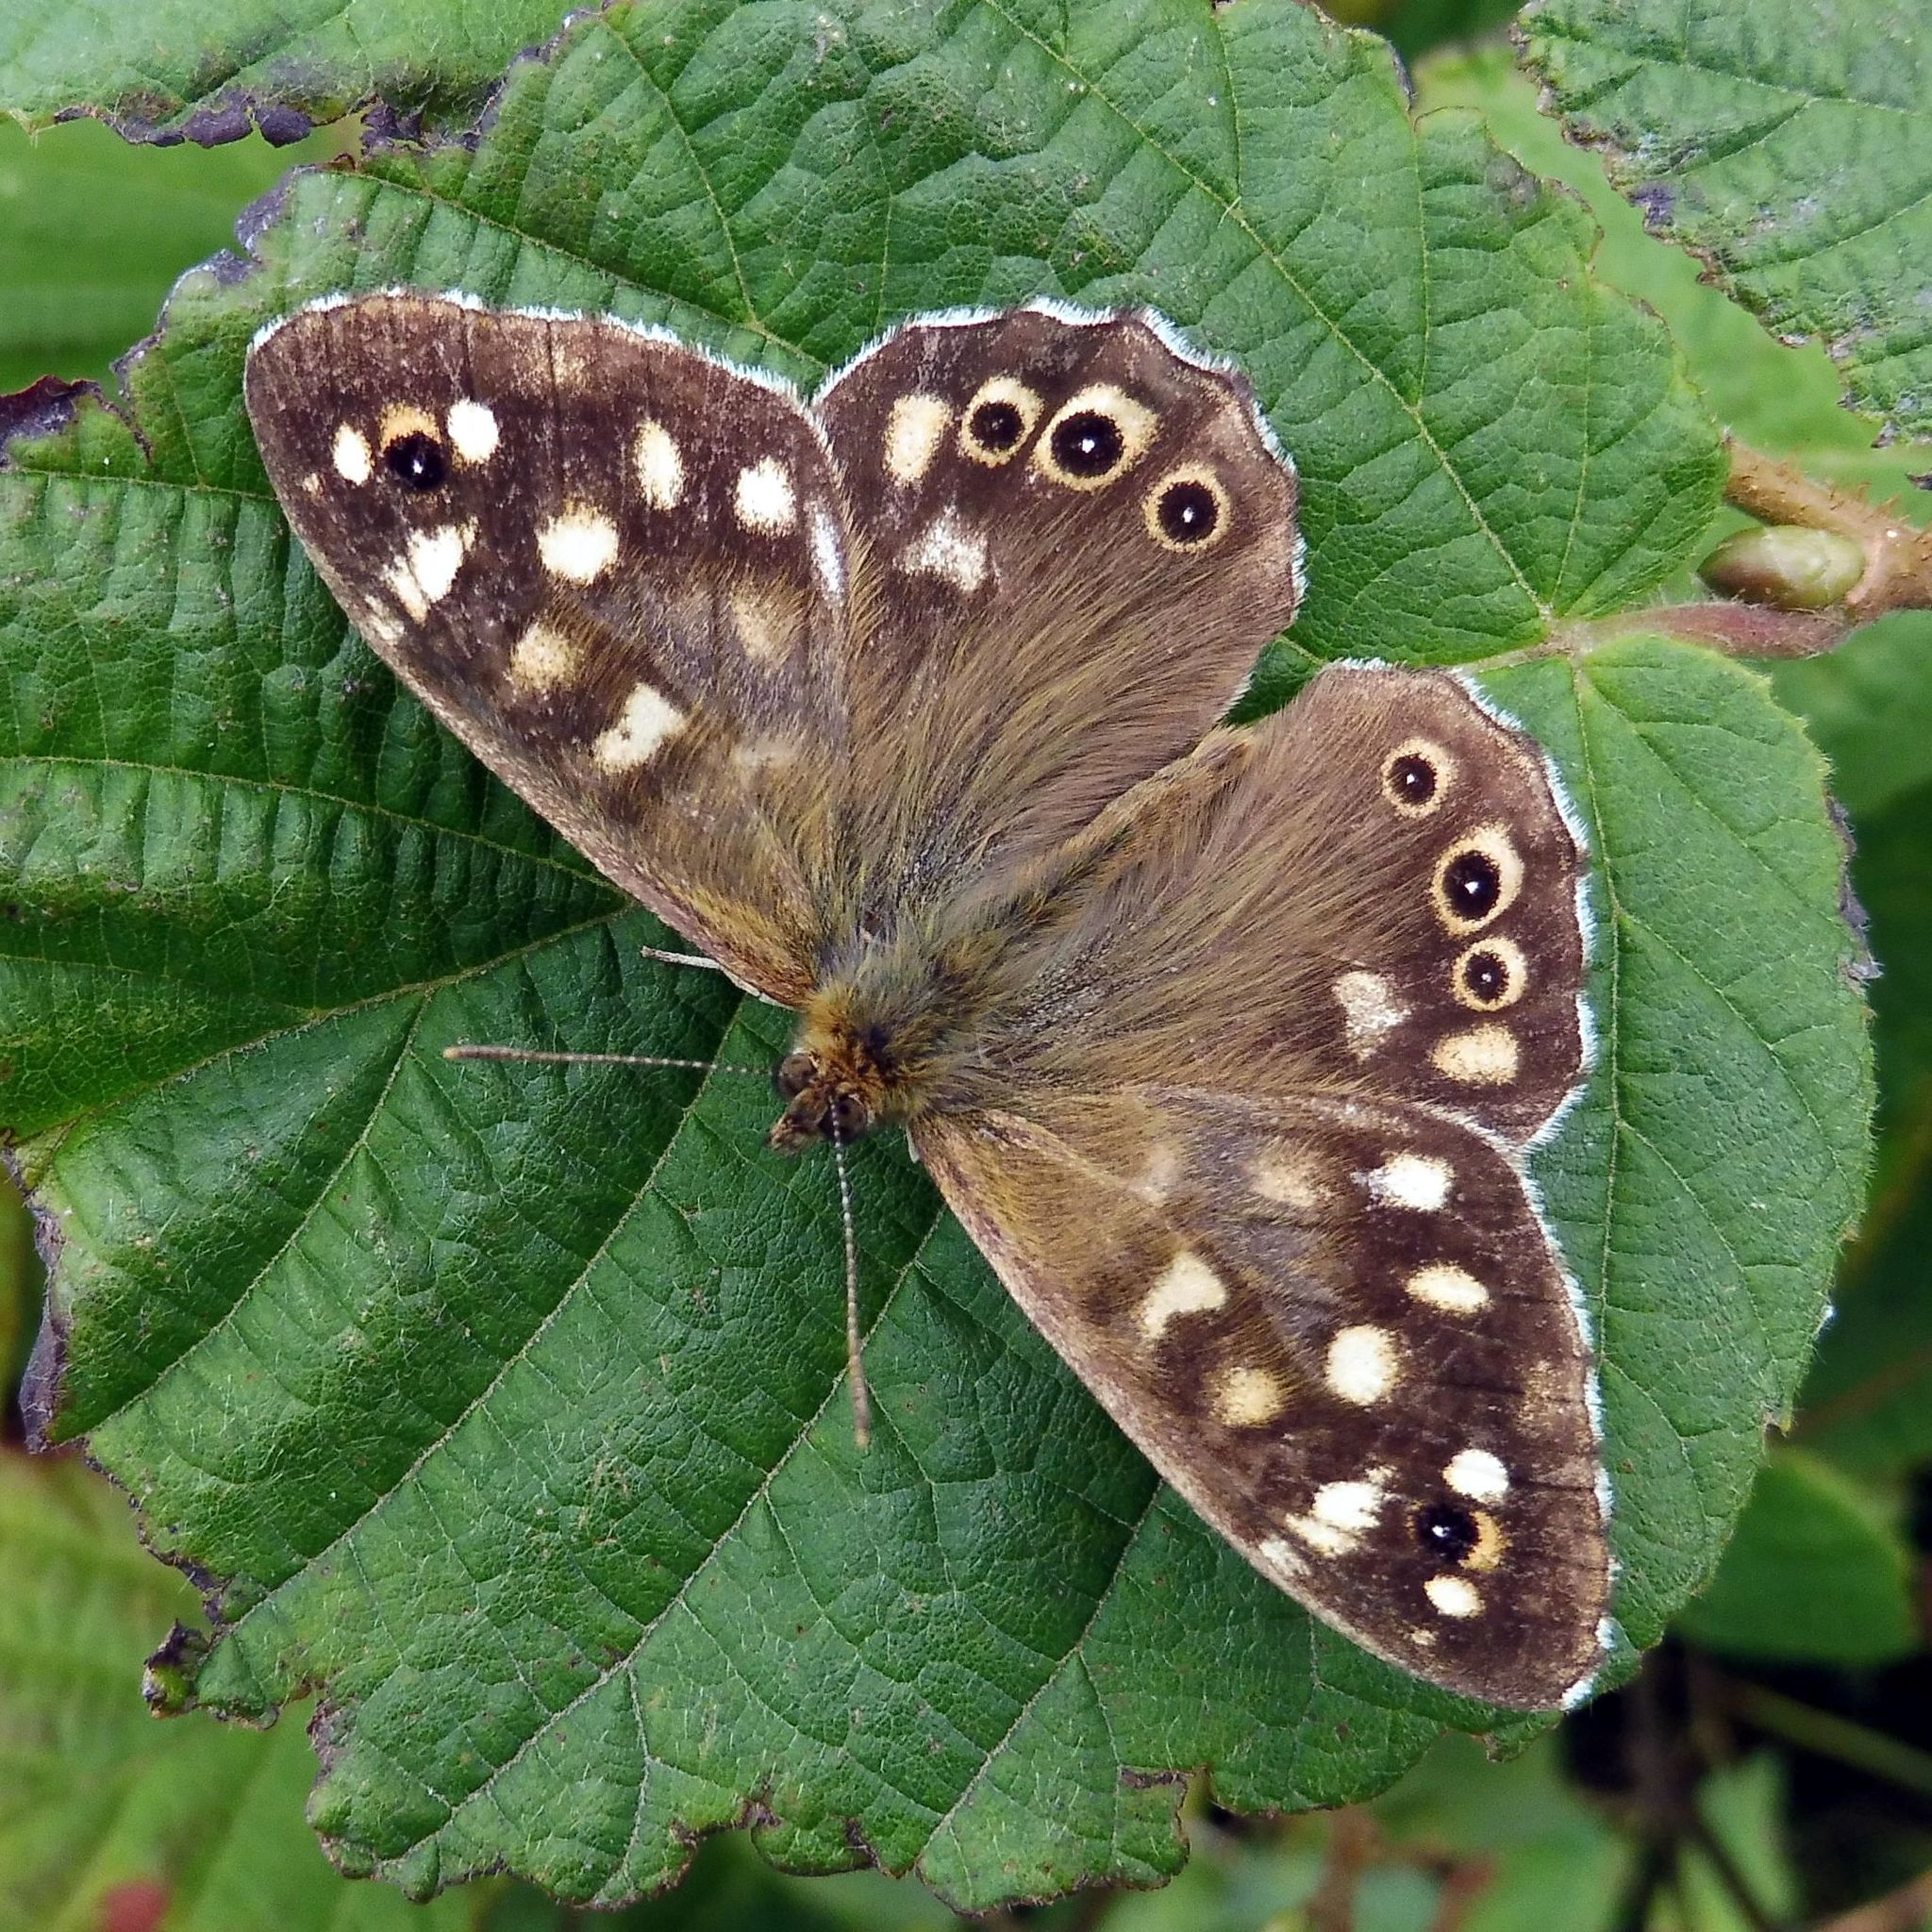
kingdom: Animalia
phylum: Arthropoda
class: Insecta
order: Lepidoptera
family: Nymphalidae
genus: Pararge
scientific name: Pararge aegeria
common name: Speckled wood
